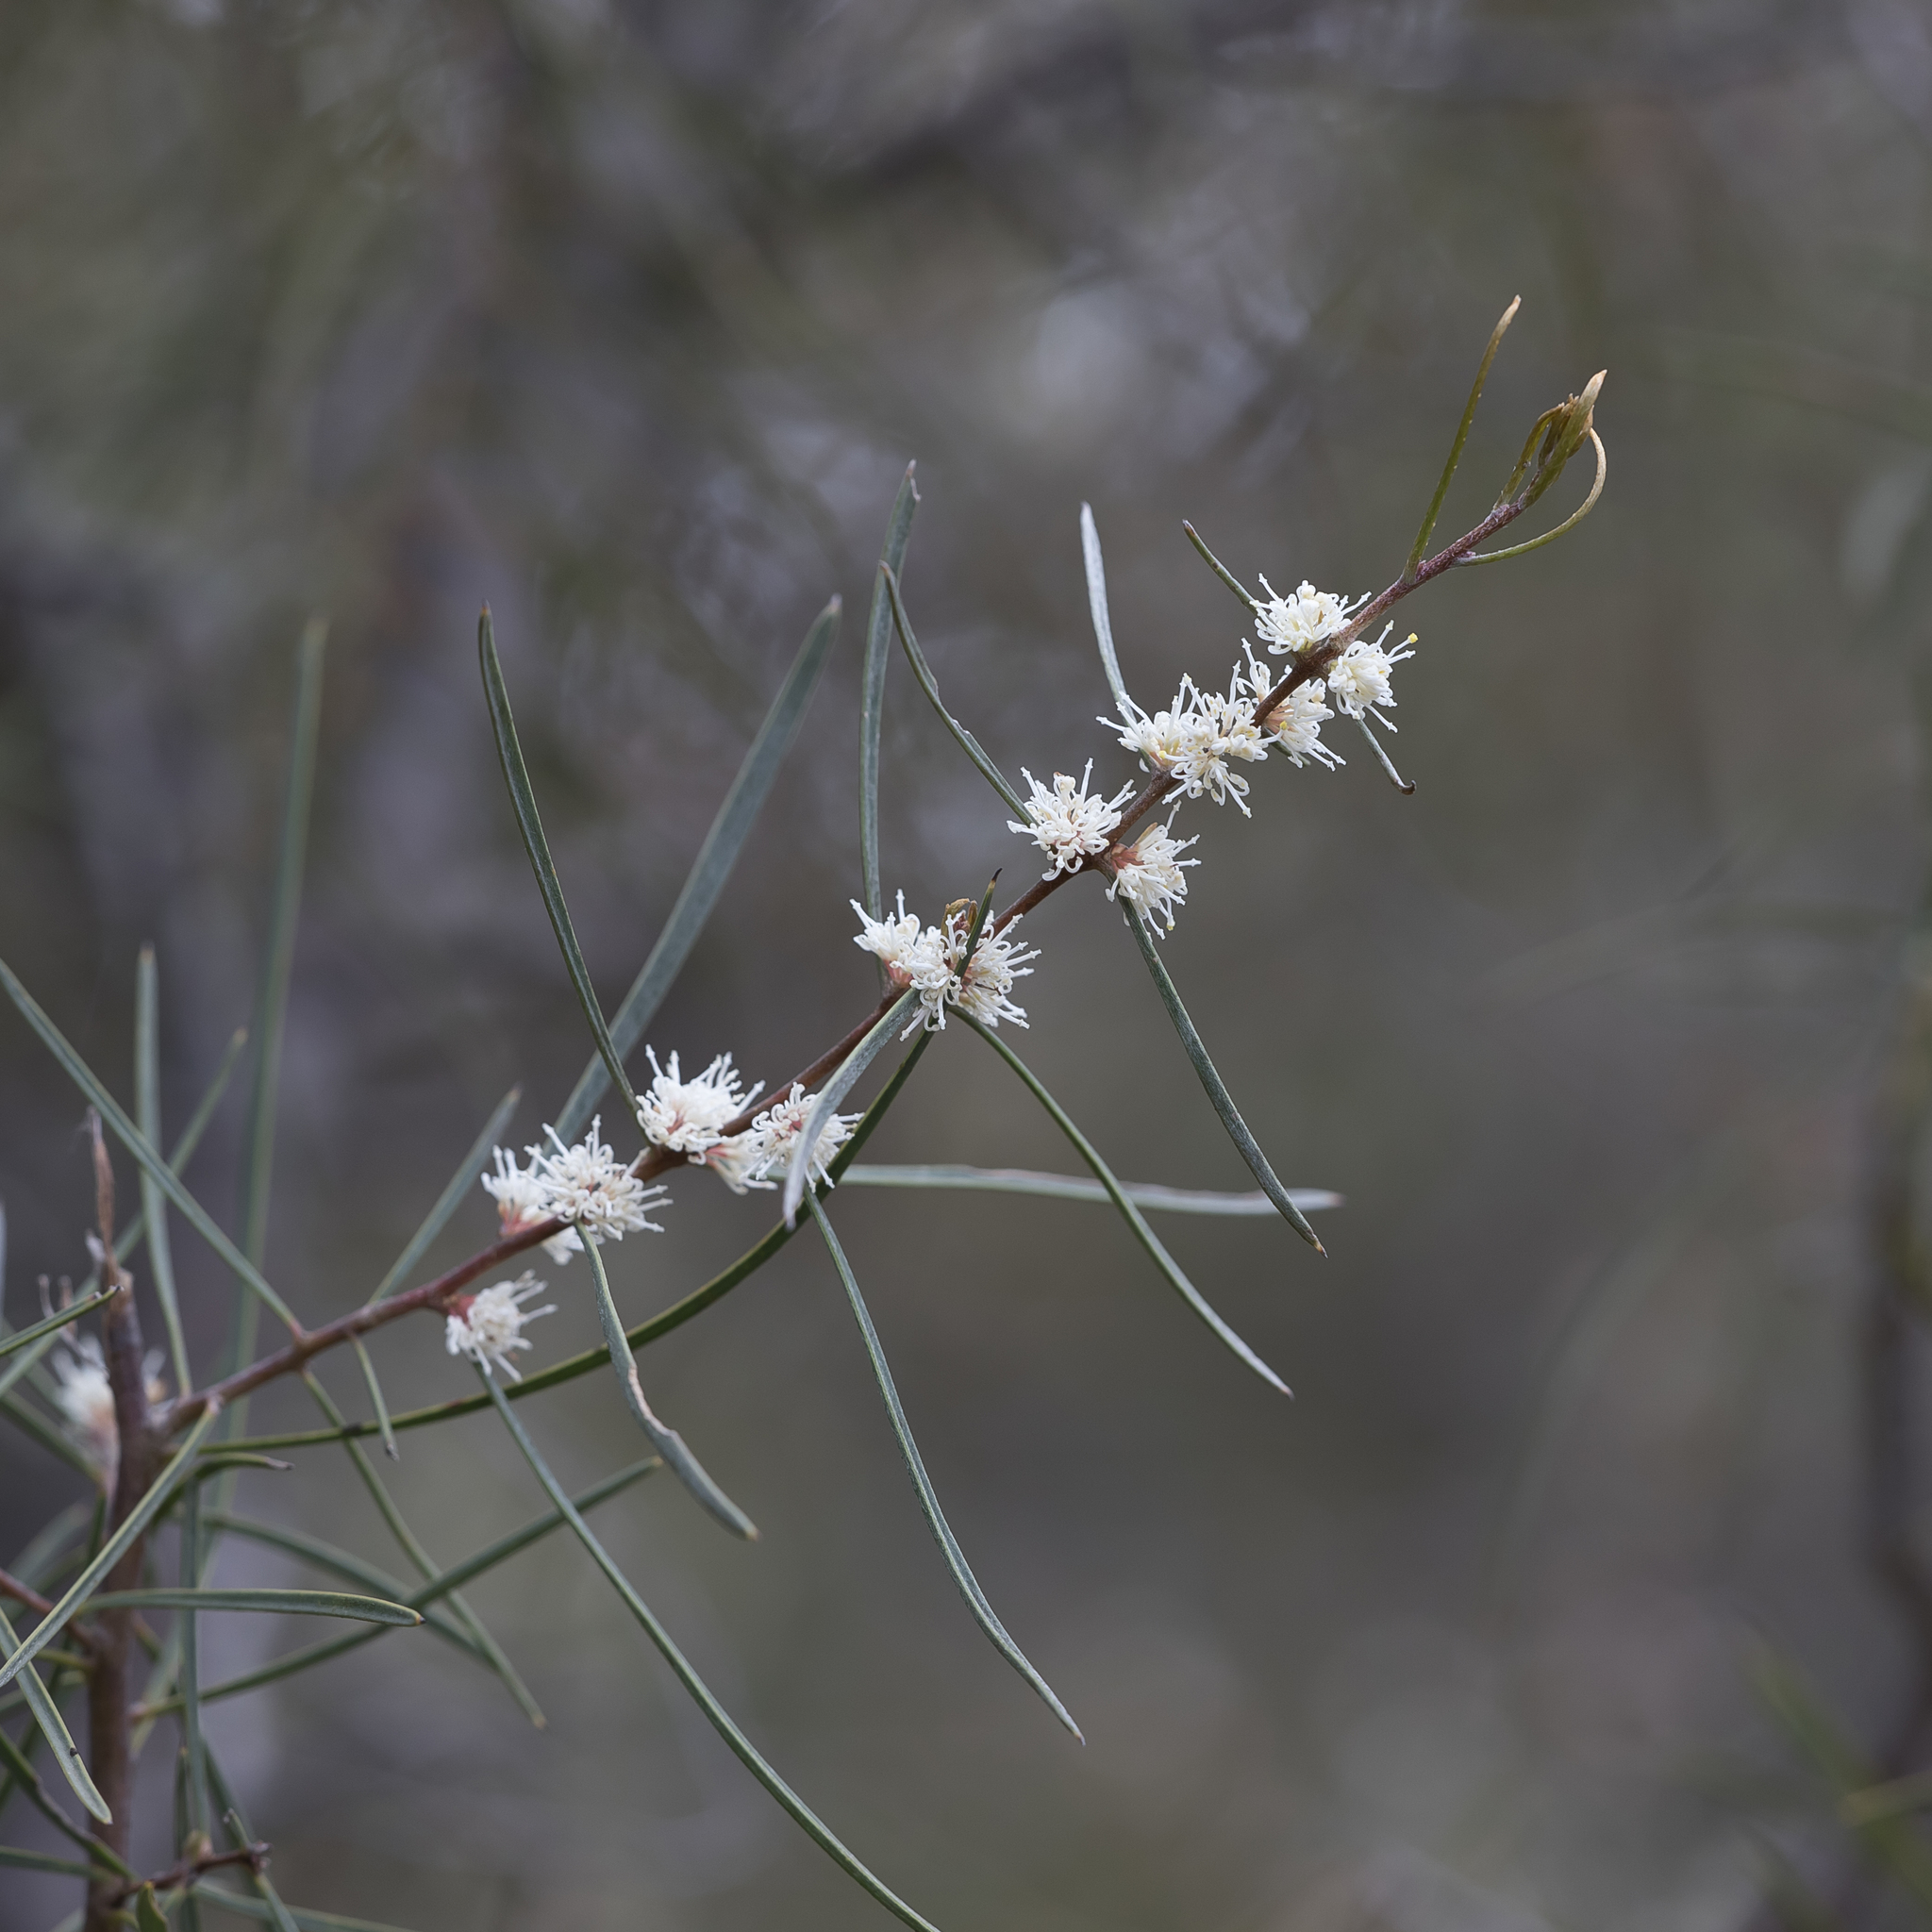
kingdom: Plantae
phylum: Tracheophyta
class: Magnoliopsida
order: Proteales
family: Proteaceae
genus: Hakea
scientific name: Hakea carinata
